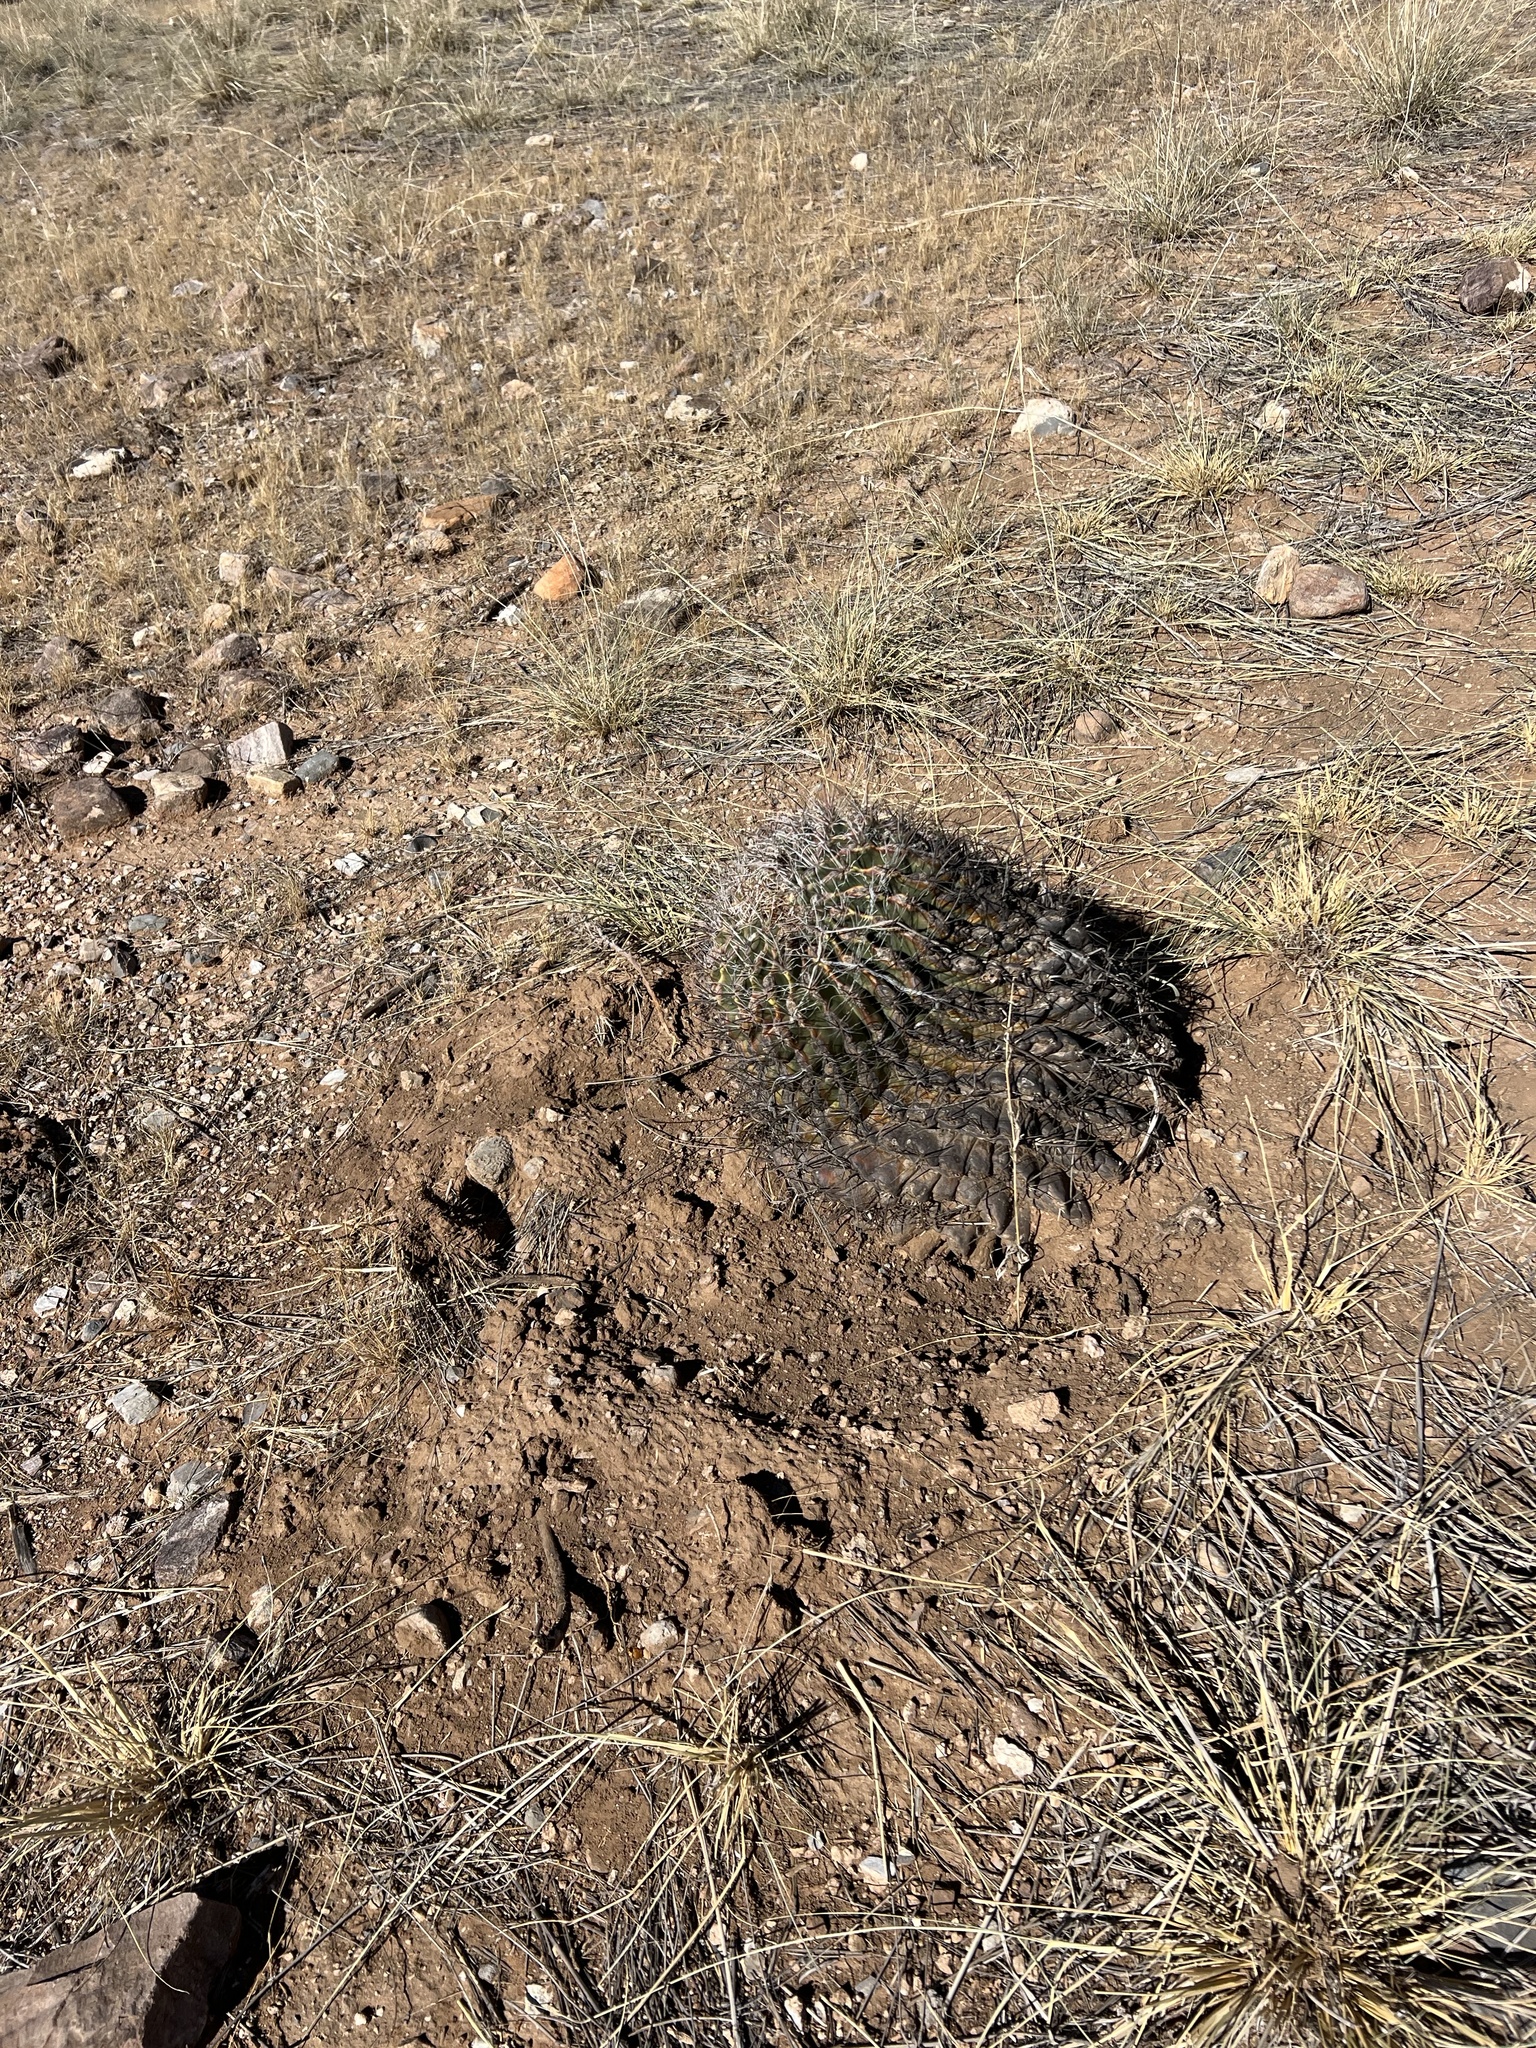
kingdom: Plantae
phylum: Tracheophyta
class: Magnoliopsida
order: Caryophyllales
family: Cactaceae
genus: Ferocactus
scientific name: Ferocactus wislizeni
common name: Candy barrel cactus
